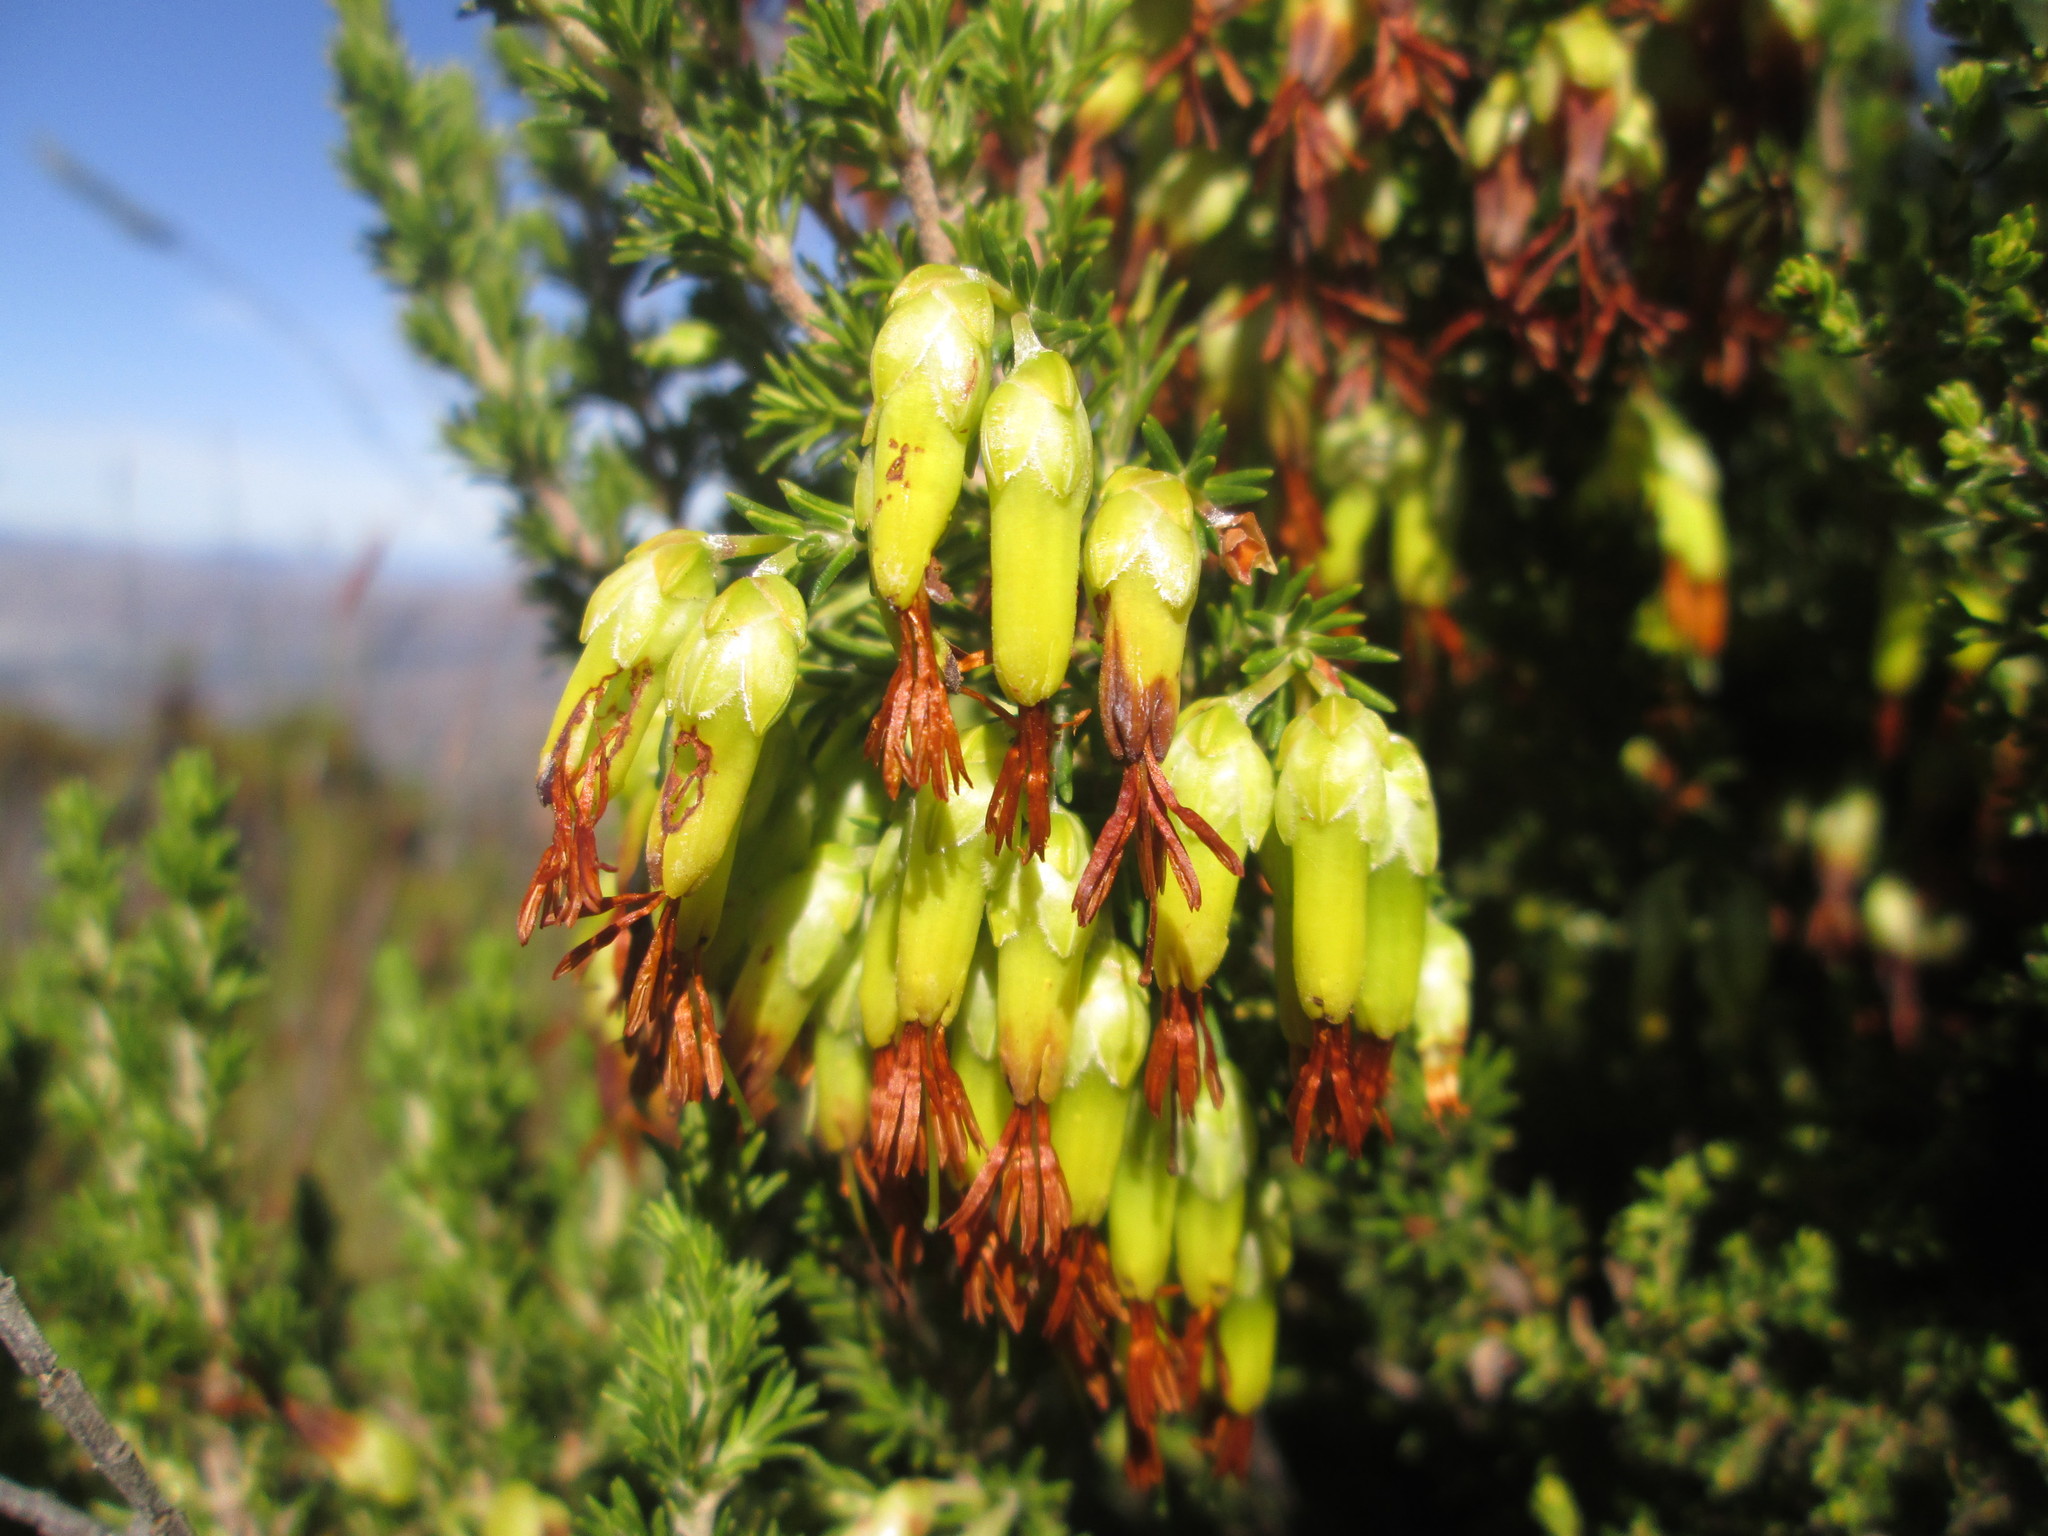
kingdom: Plantae
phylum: Tracheophyta
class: Magnoliopsida
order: Ericales
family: Ericaceae
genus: Erica
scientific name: Erica coccinea
